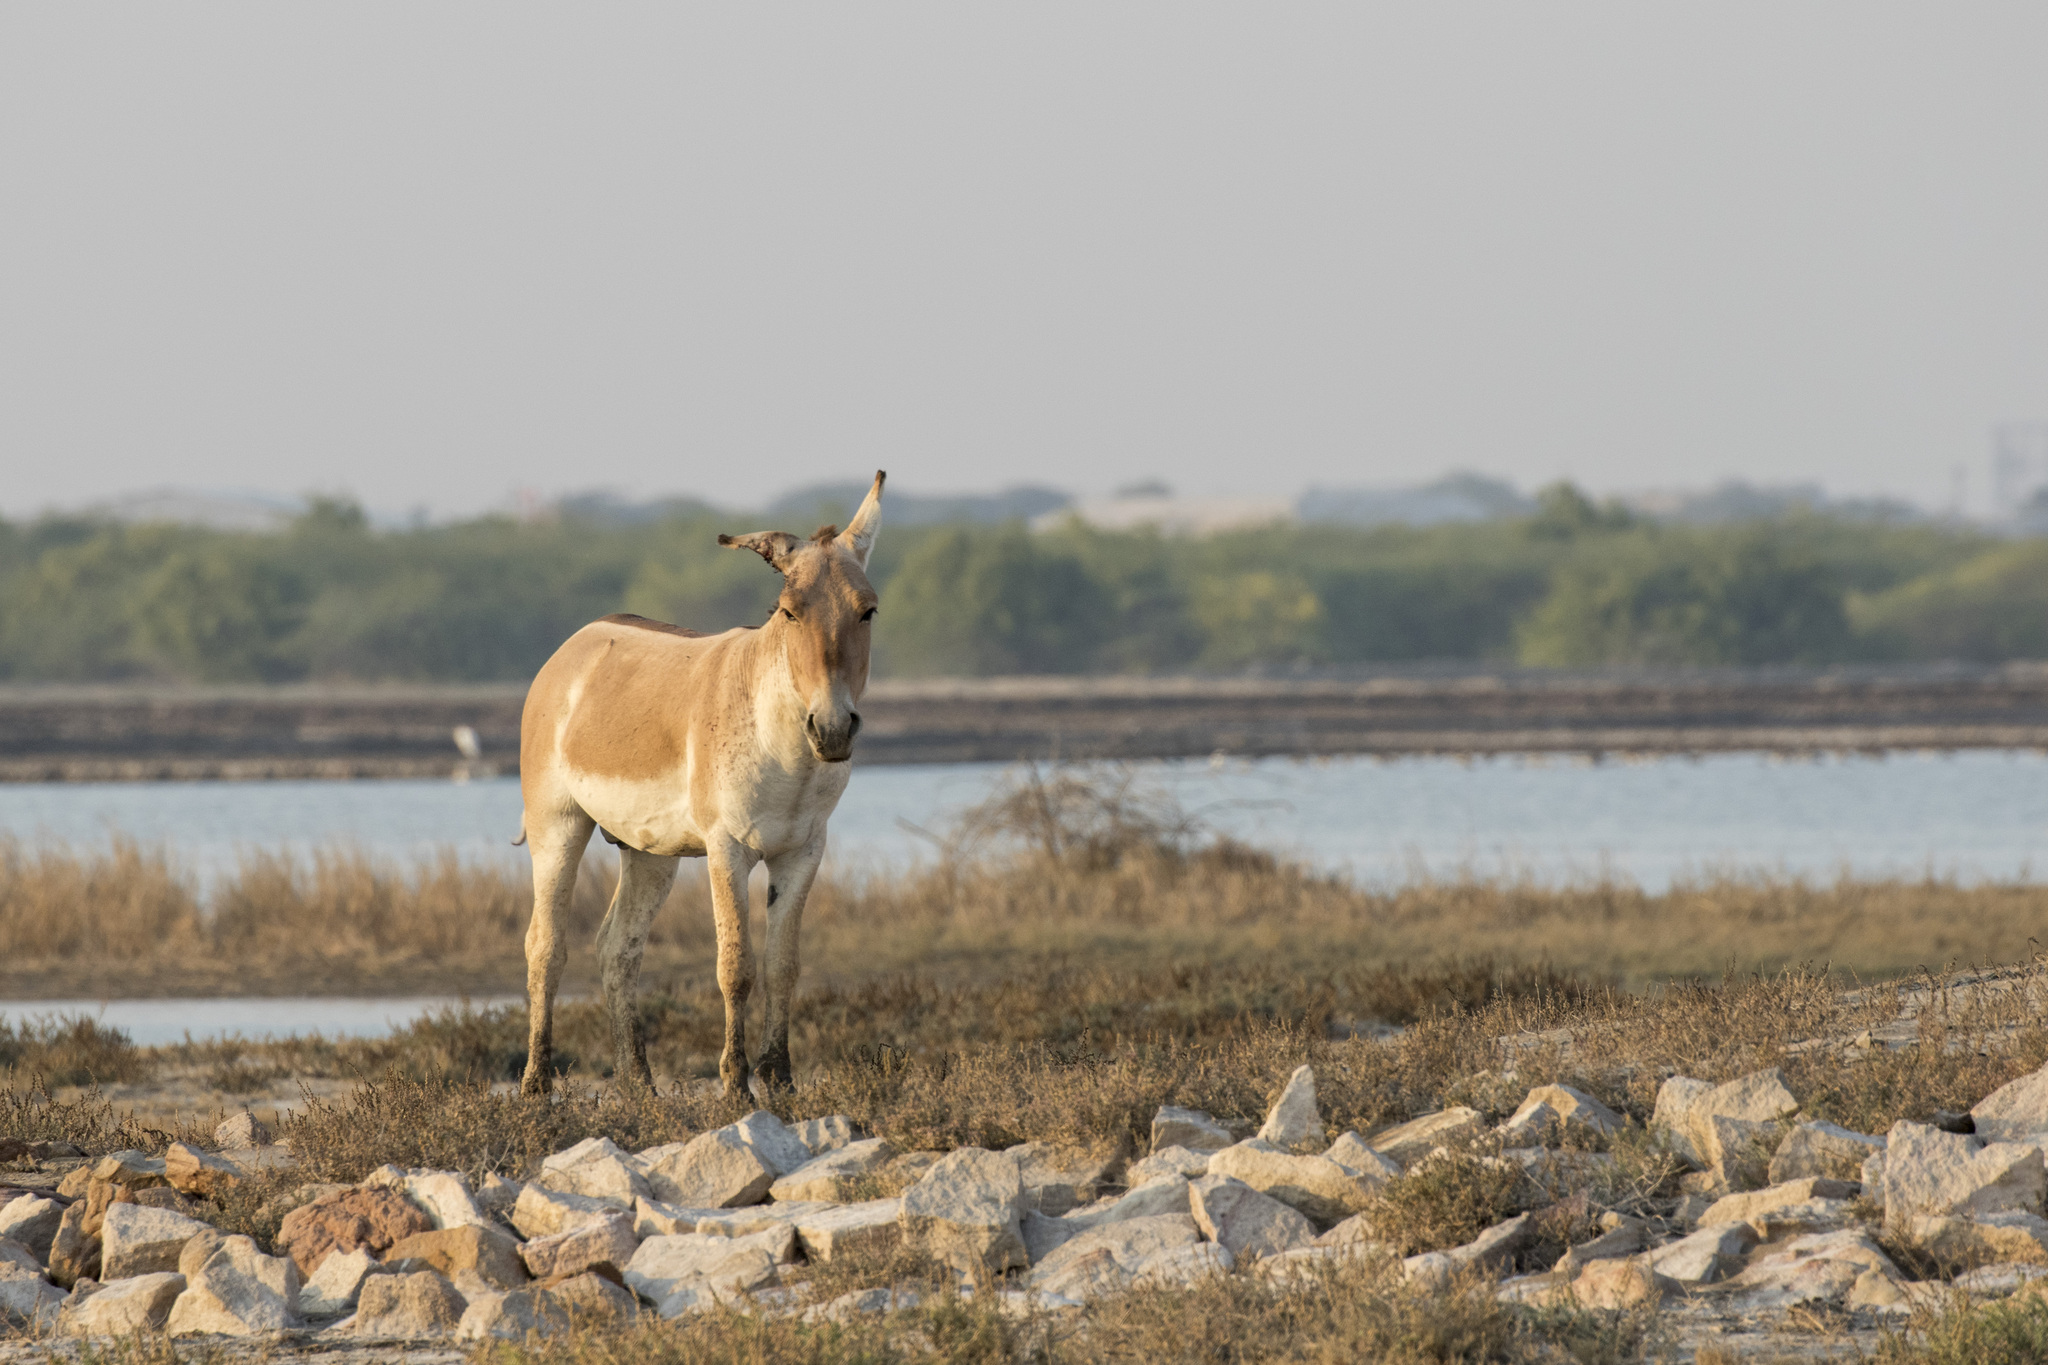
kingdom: Animalia
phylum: Chordata
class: Mammalia
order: Perissodactyla
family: Equidae
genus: Equus
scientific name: Equus khur
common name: Indian wild ass
